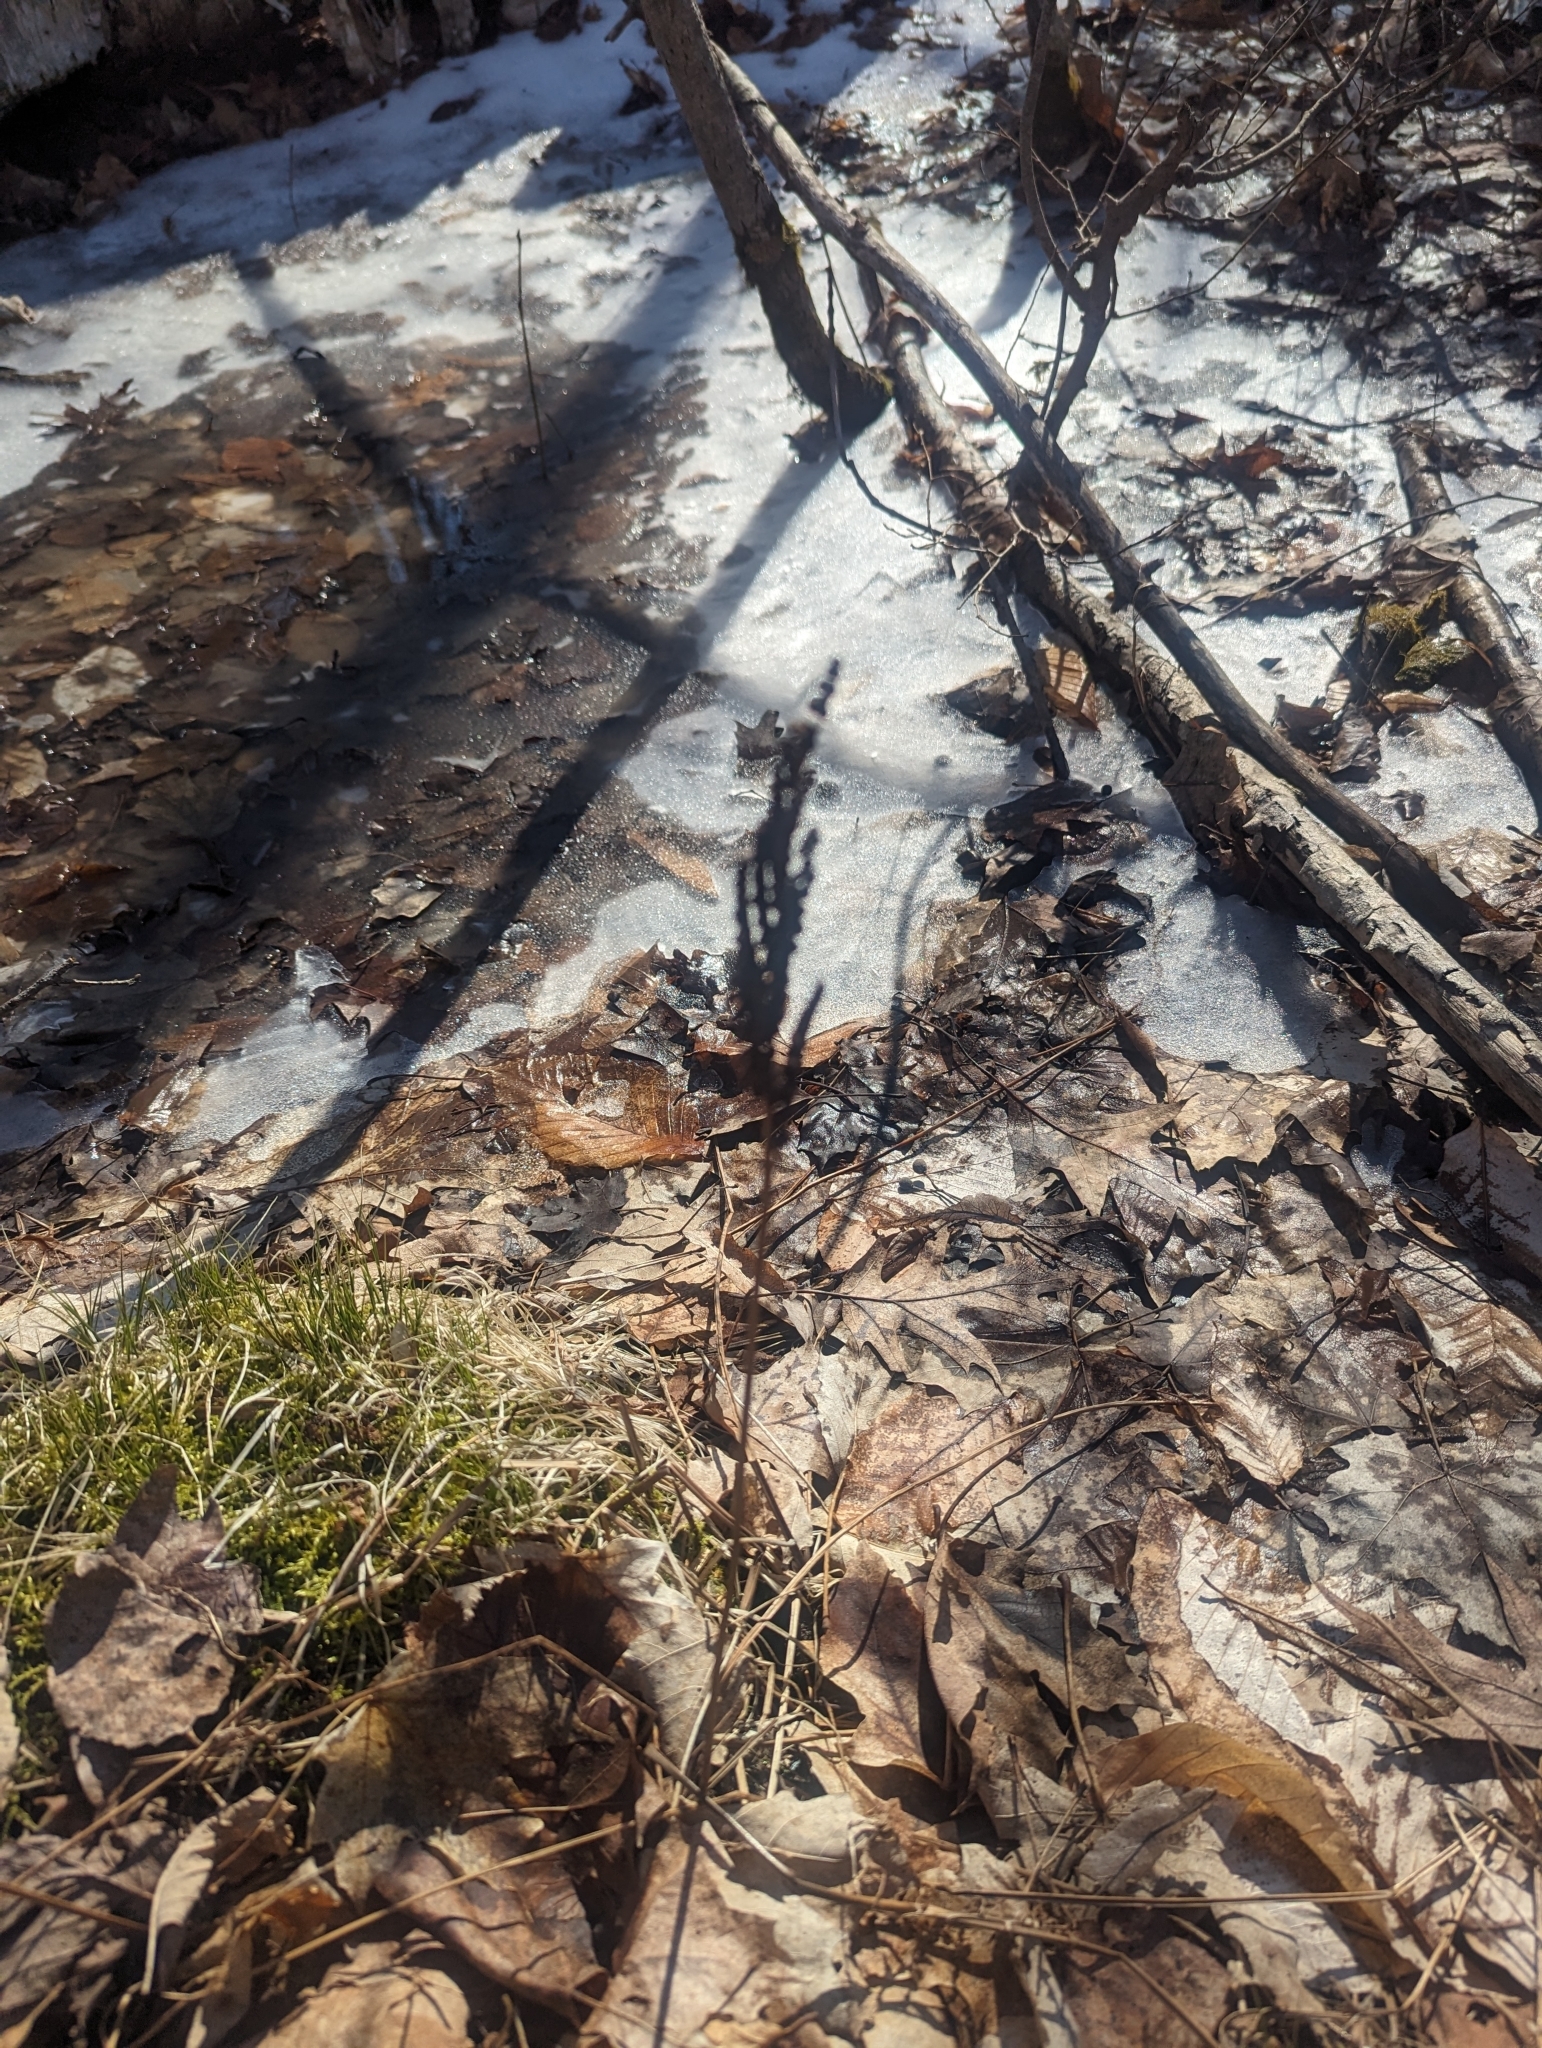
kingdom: Plantae
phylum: Tracheophyta
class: Polypodiopsida
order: Polypodiales
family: Onocleaceae
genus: Onoclea
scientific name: Onoclea sensibilis
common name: Sensitive fern
